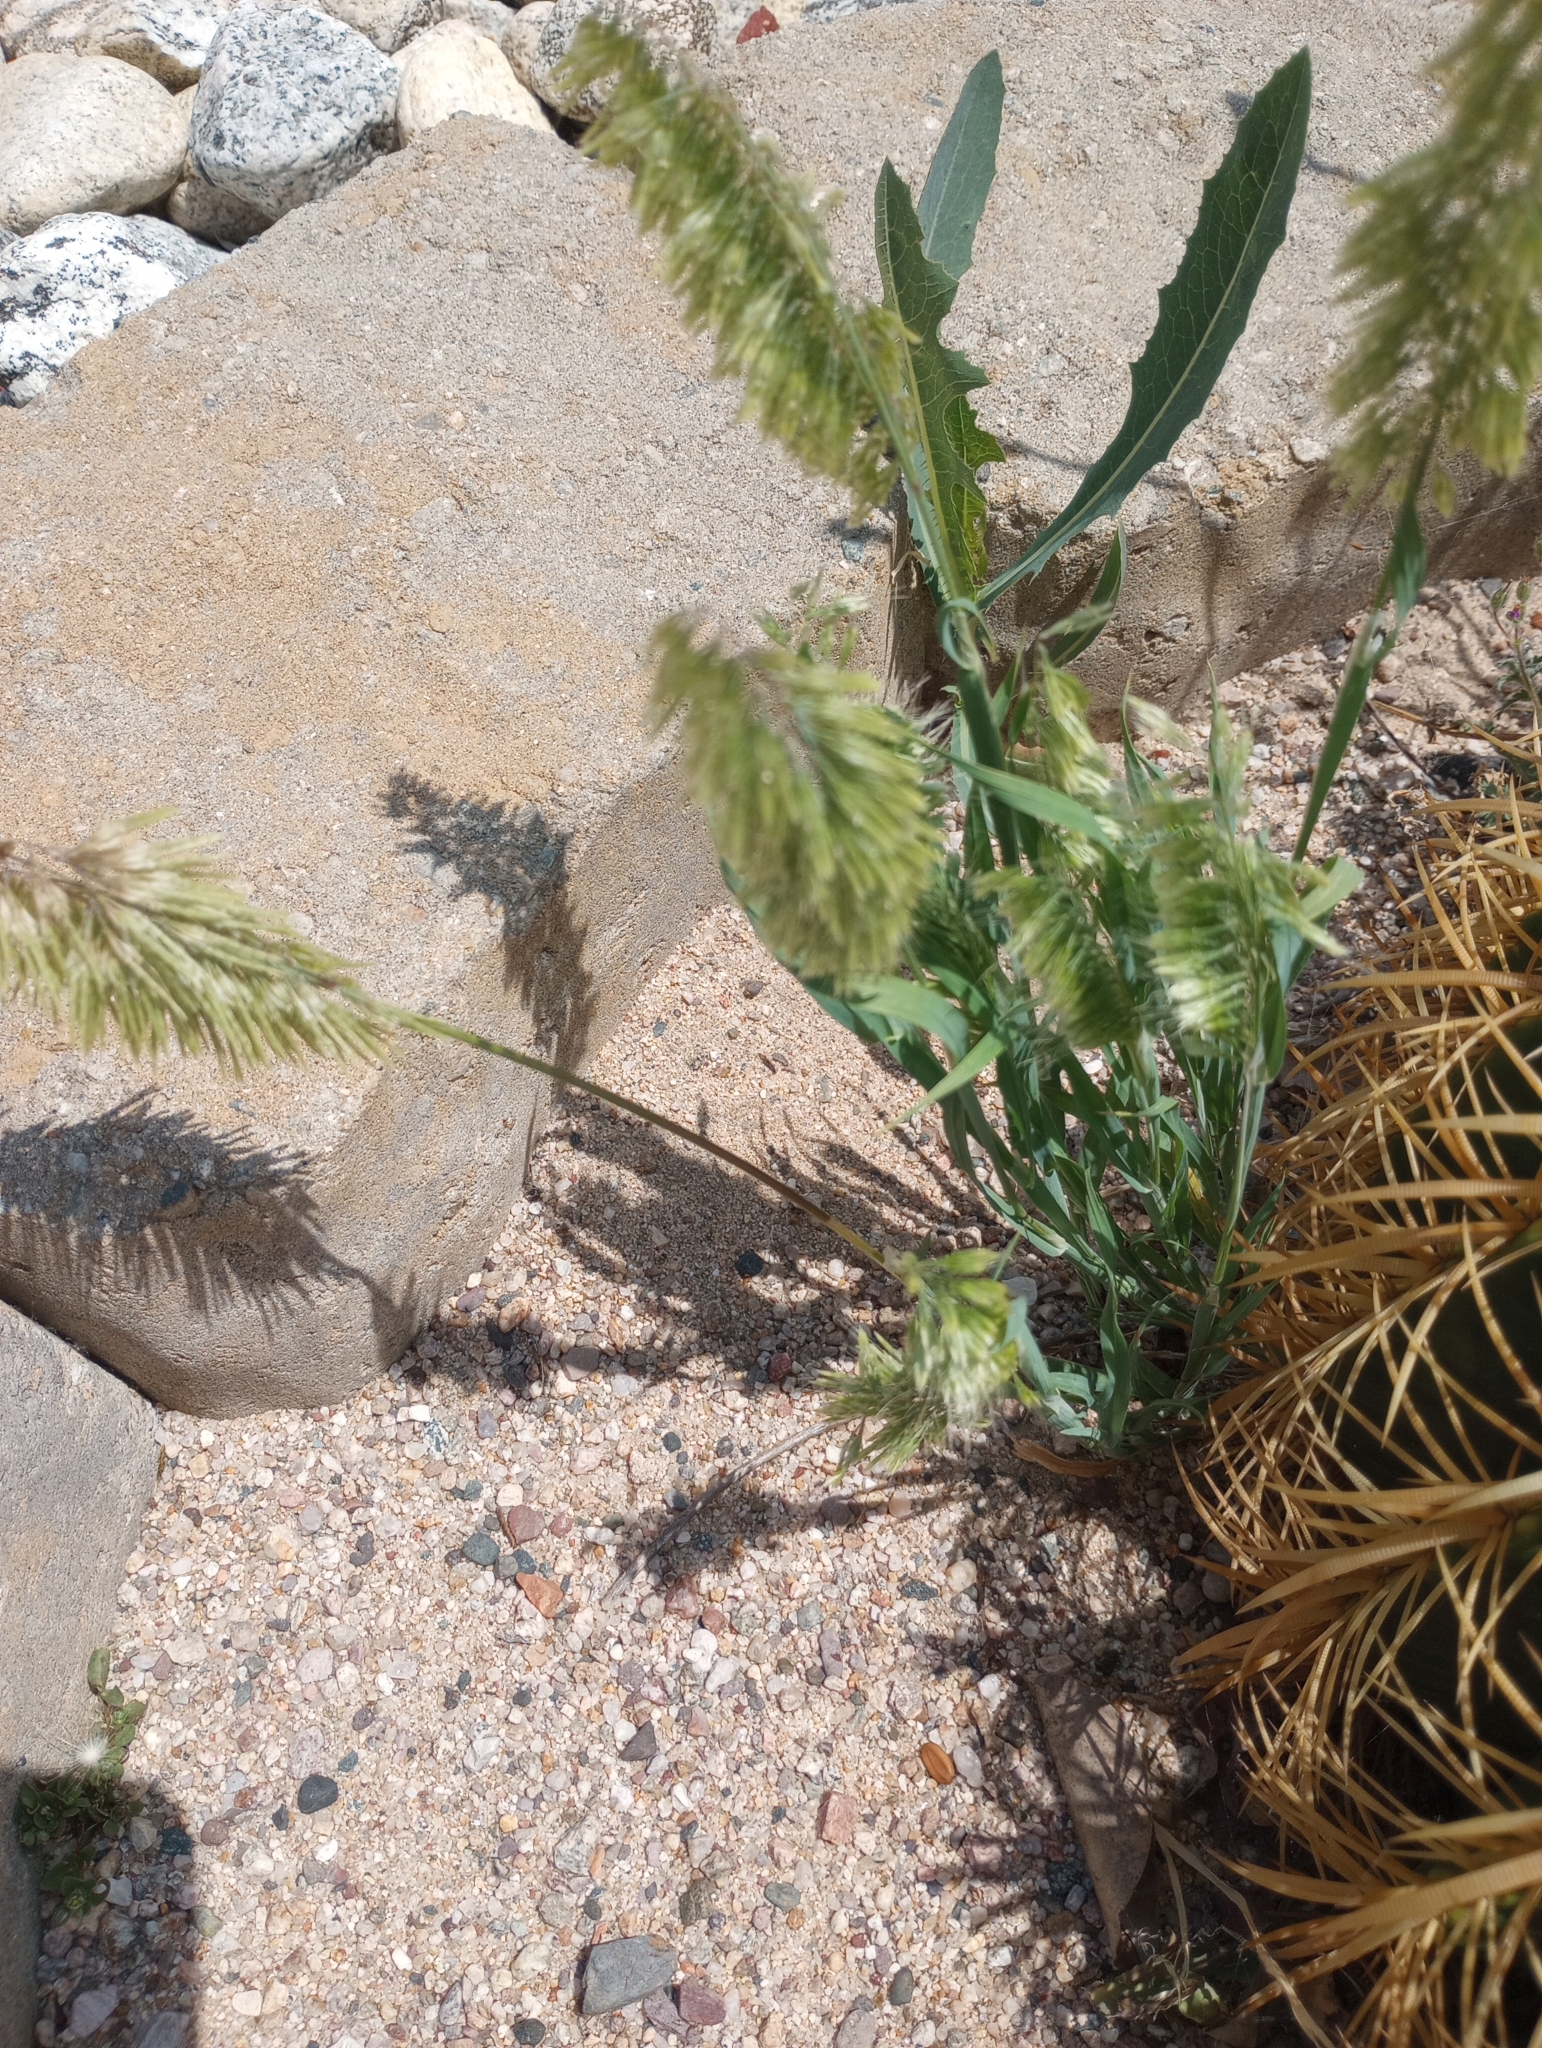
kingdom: Plantae
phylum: Tracheophyta
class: Liliopsida
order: Poales
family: Poaceae
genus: Lamarckia
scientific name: Lamarckia aurea
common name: Golden dog's-tail
